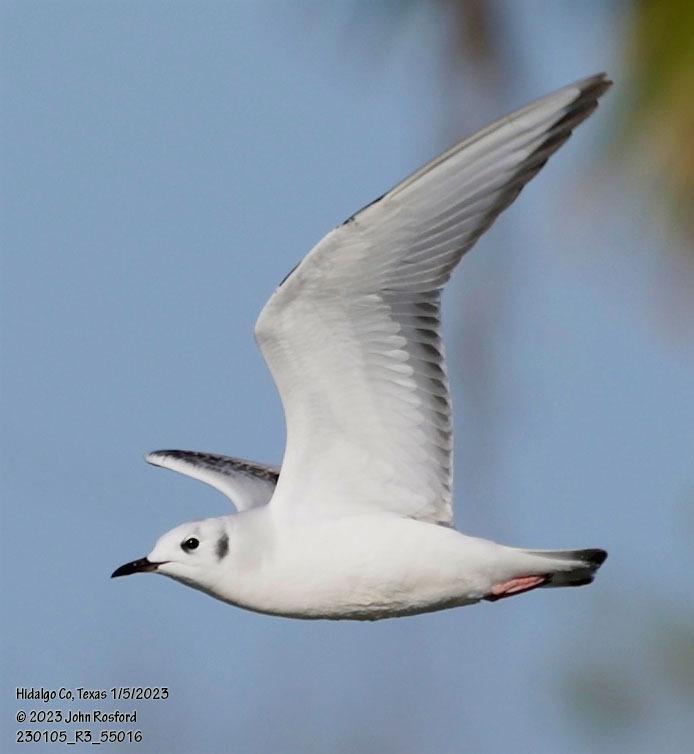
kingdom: Animalia
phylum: Chordata
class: Aves
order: Charadriiformes
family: Laridae
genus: Chroicocephalus
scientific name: Chroicocephalus philadelphia
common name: Bonaparte's gull
